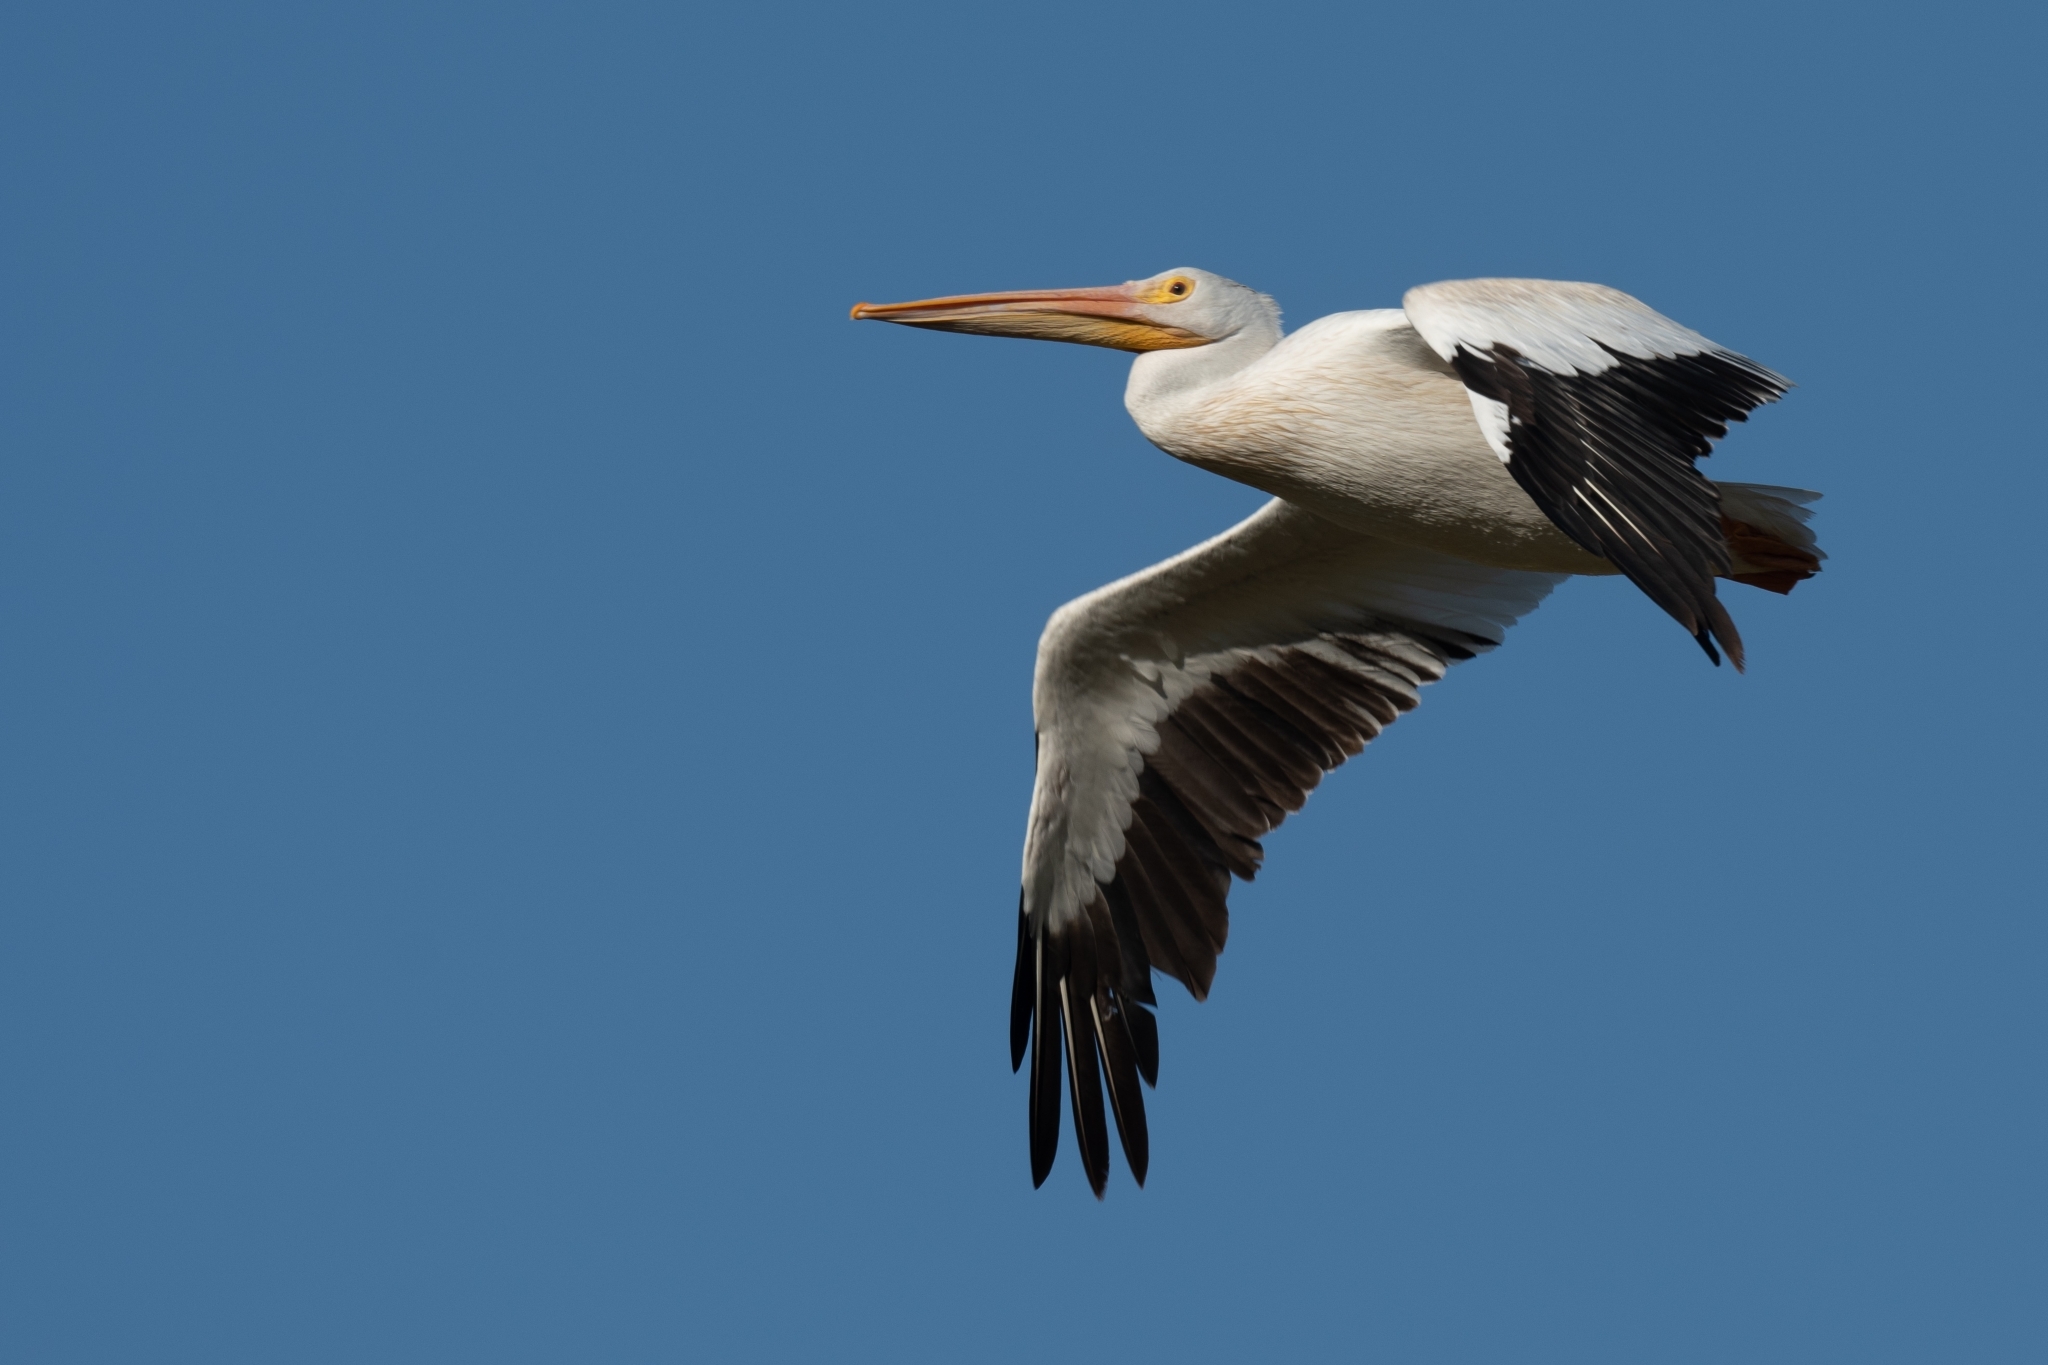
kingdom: Animalia
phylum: Chordata
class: Aves
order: Pelecaniformes
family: Pelecanidae
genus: Pelecanus
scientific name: Pelecanus erythrorhynchos
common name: American white pelican
